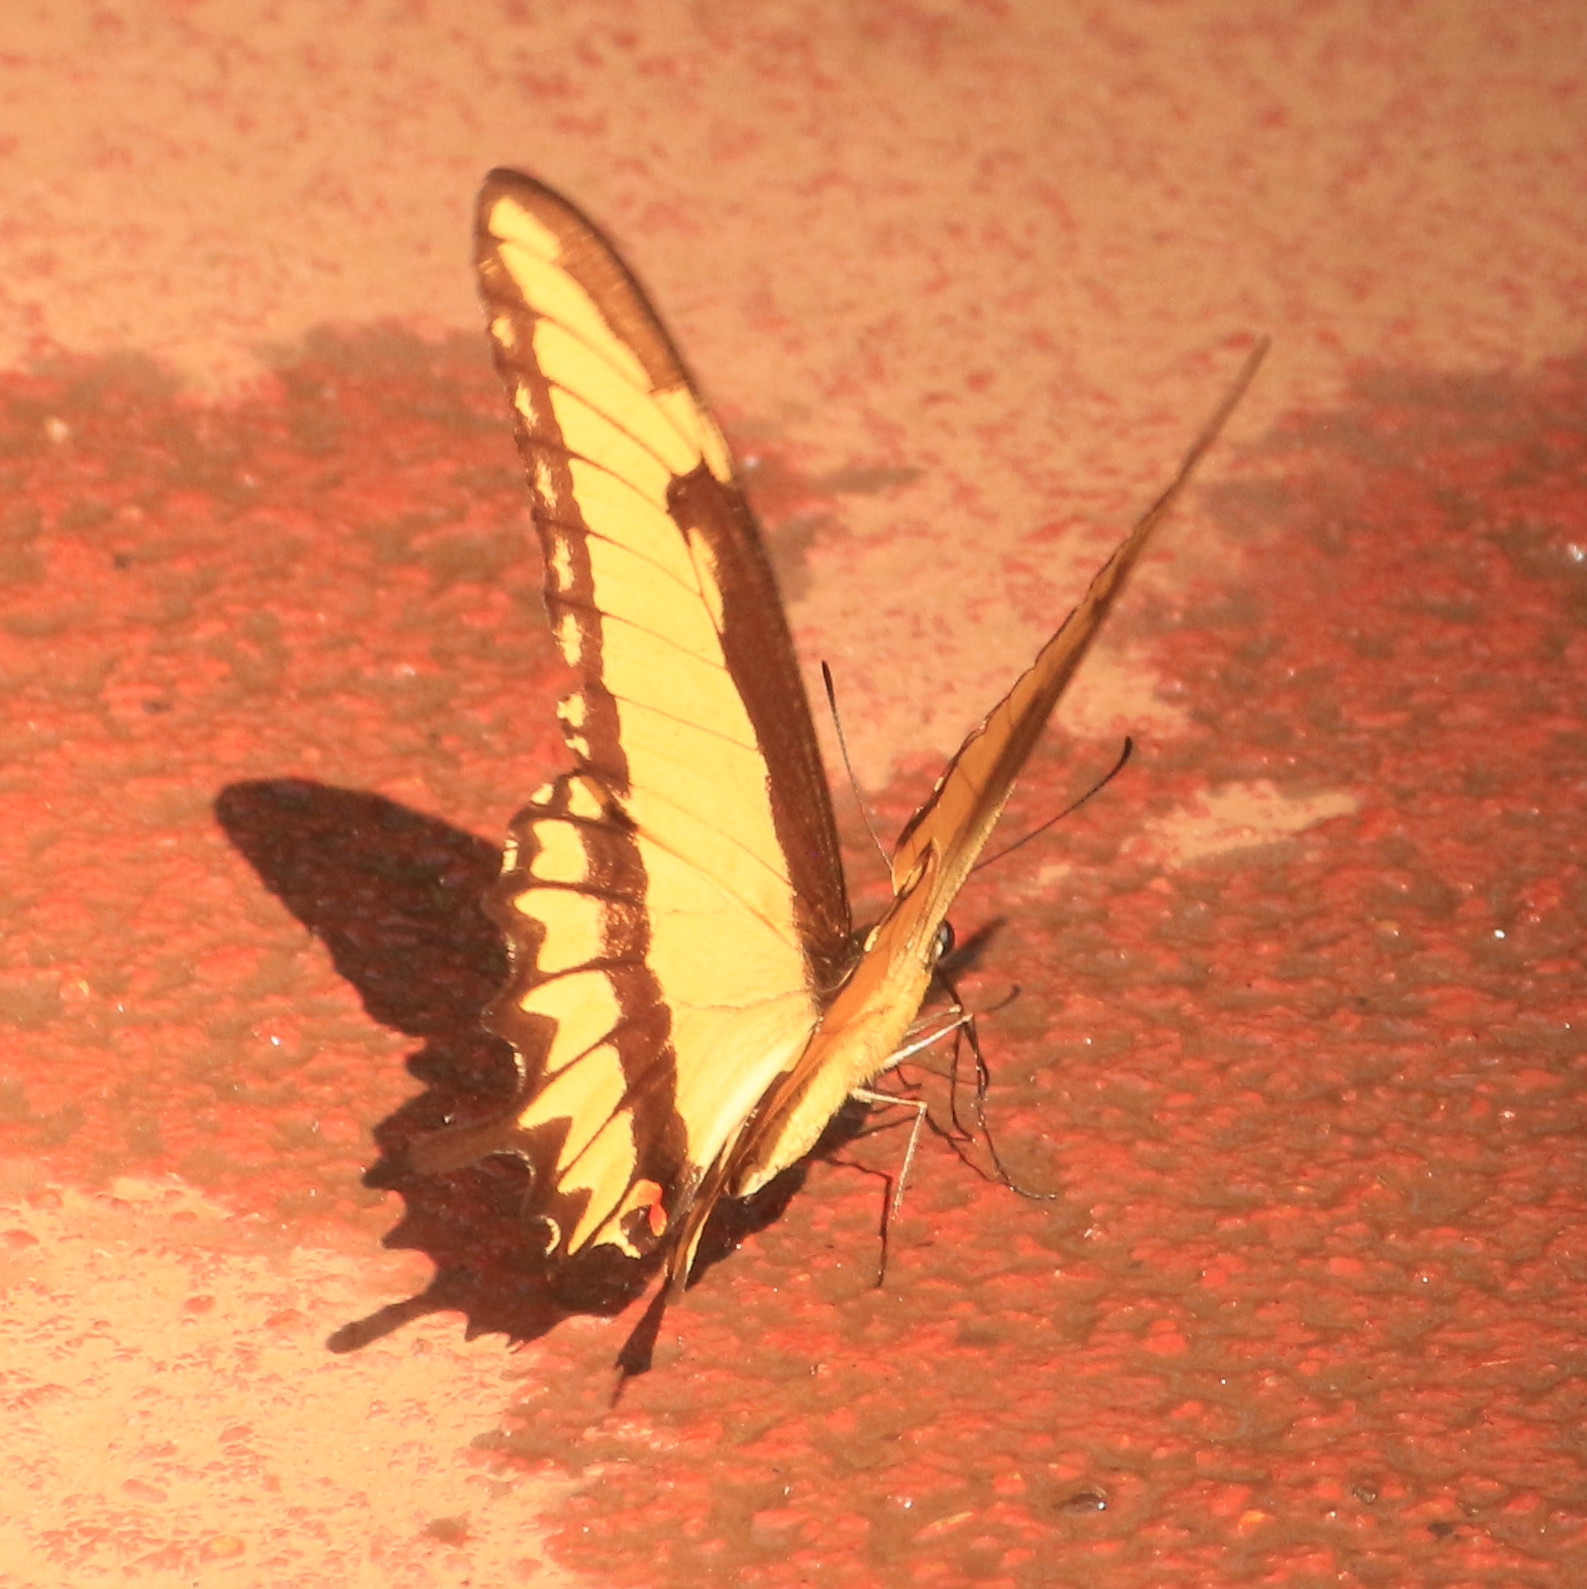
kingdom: Animalia
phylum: Arthropoda
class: Insecta
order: Lepidoptera
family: Papilionidae
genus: Papilio
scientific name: Papilio astyalus
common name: Astyalus swallowtail
